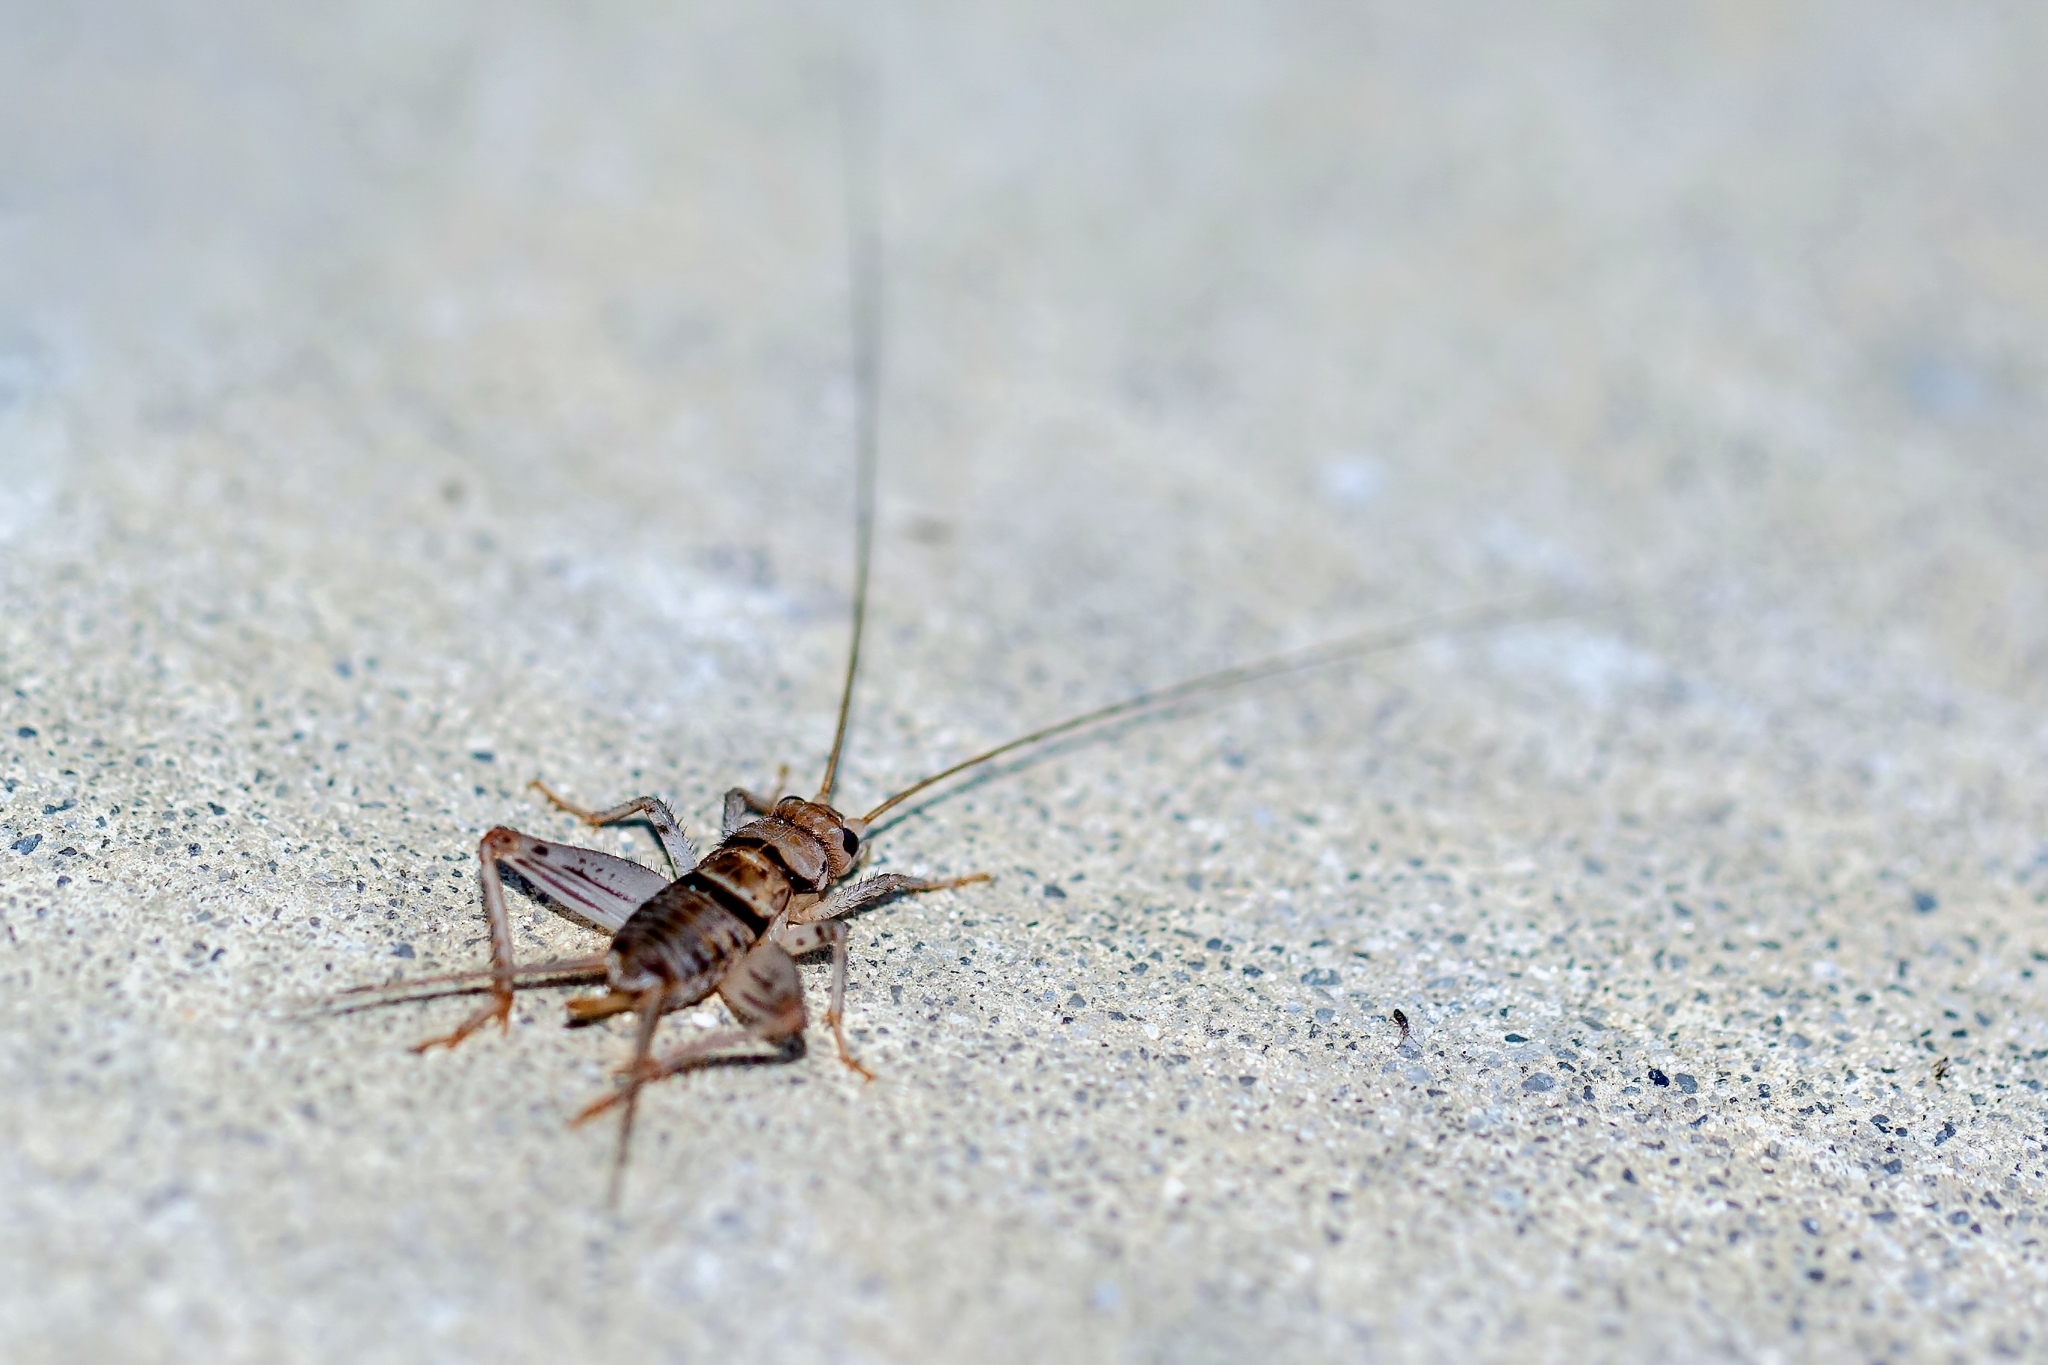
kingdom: Animalia
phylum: Arthropoda
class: Insecta
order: Orthoptera
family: Gryllidae
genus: Gryllodes
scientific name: Gryllodes sigillatus
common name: Tropical house cricket
